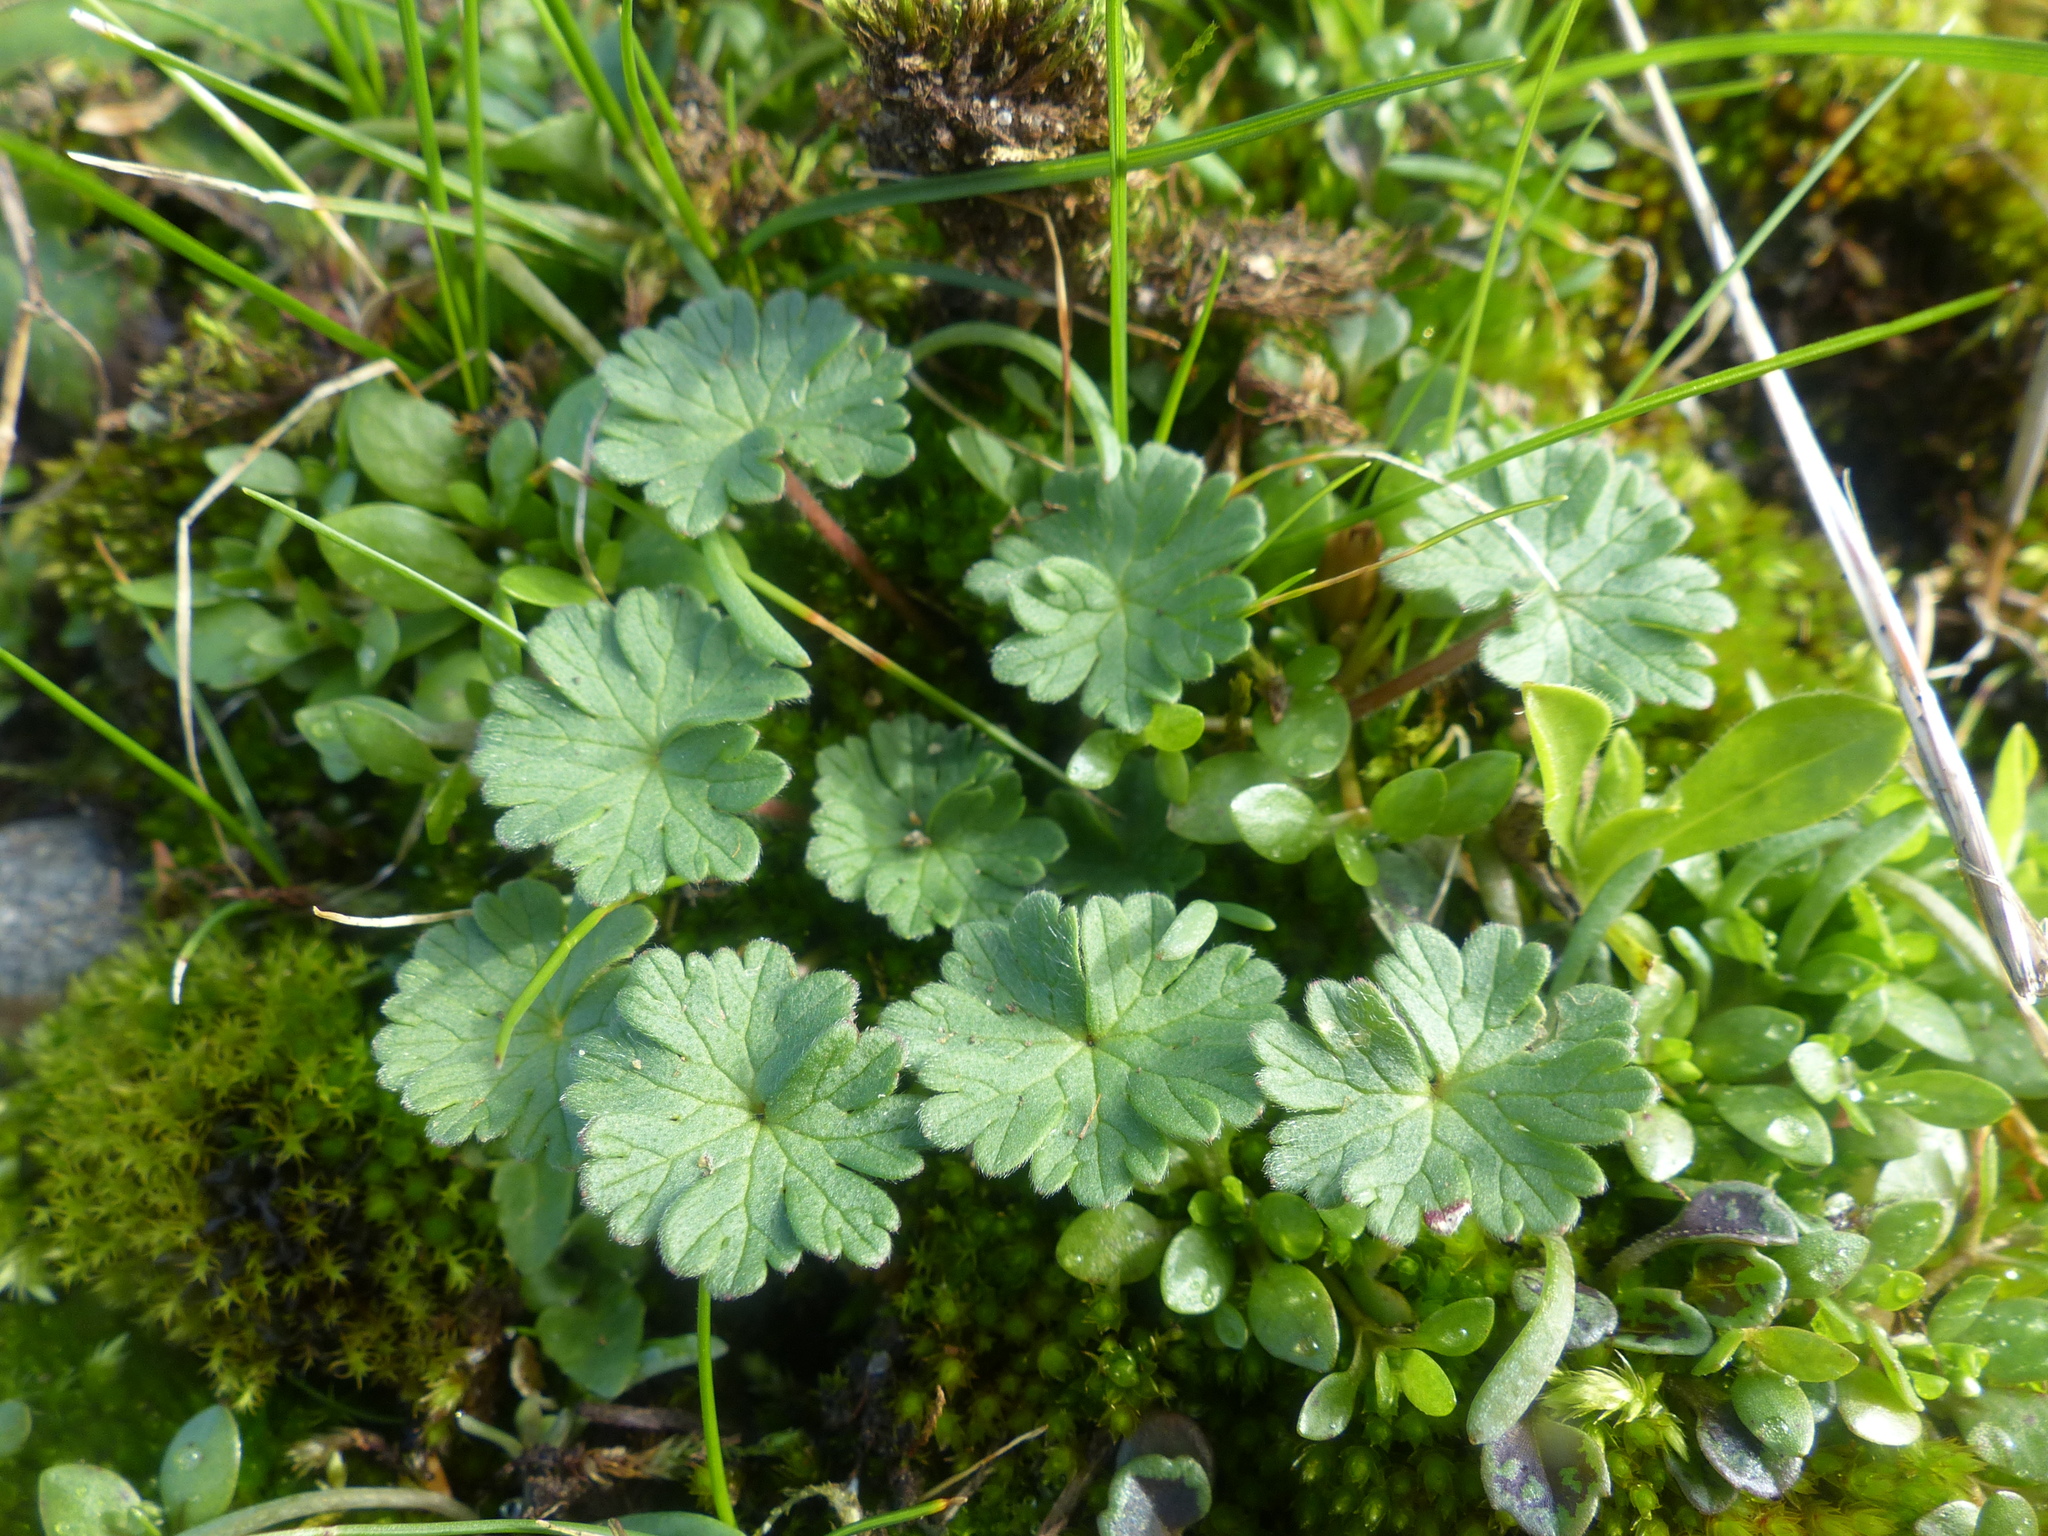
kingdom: Plantae
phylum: Tracheophyta
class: Magnoliopsida
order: Geraniales
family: Geraniaceae
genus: Geranium
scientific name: Geranium molle
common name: Dove's-foot crane's-bill
